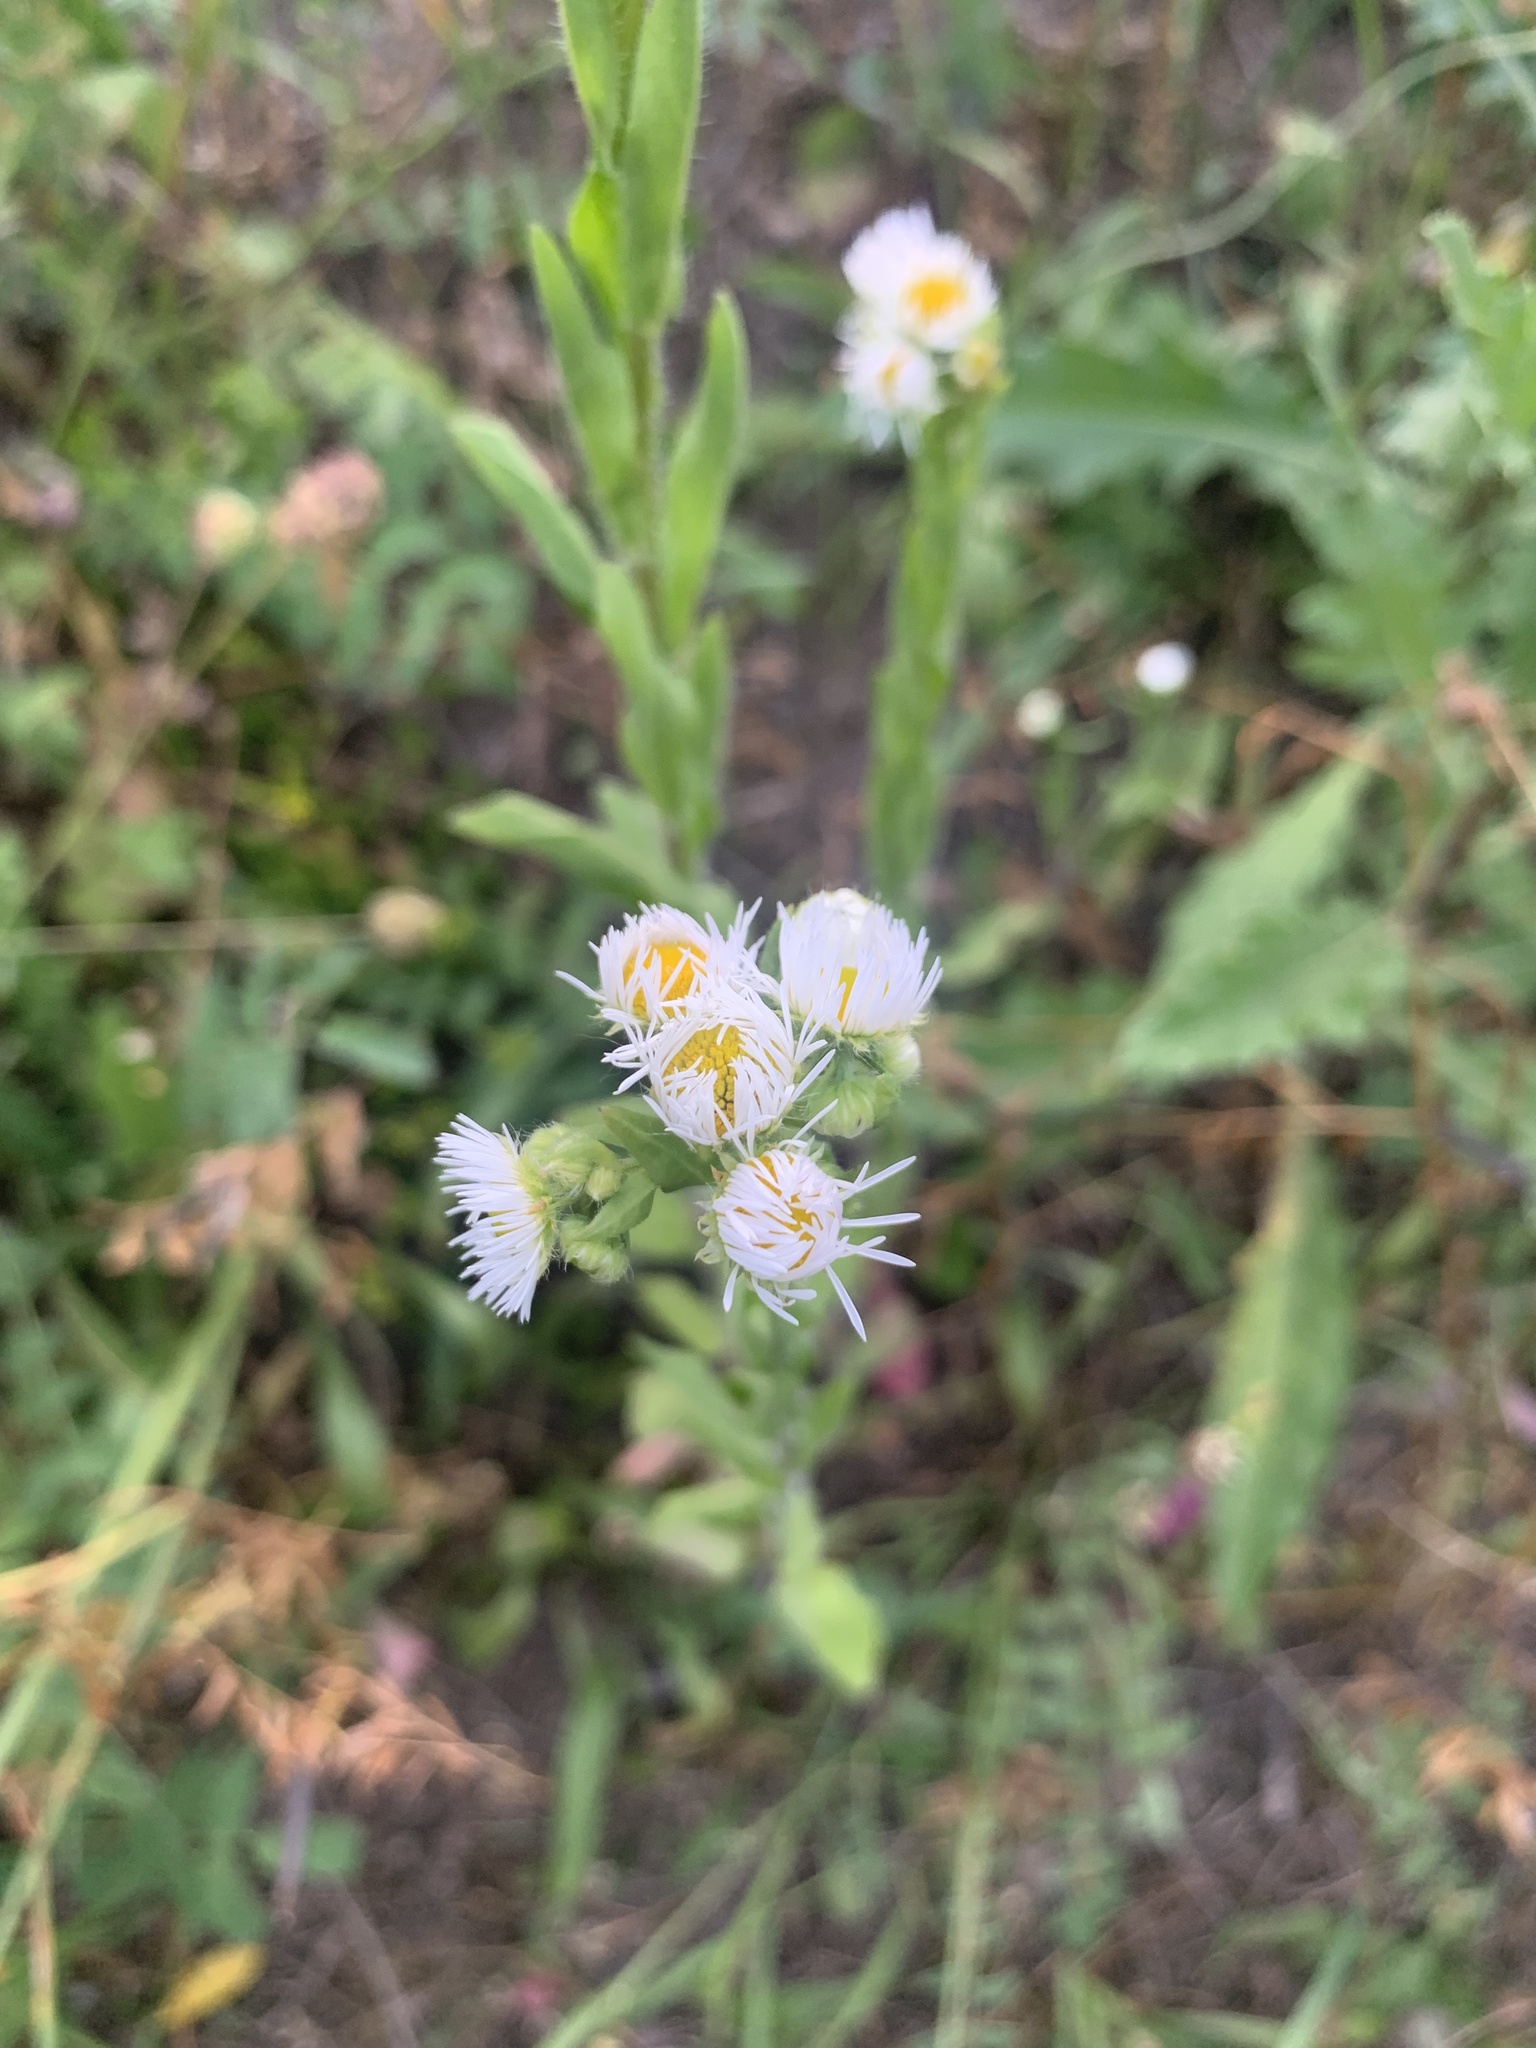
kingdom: Plantae
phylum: Tracheophyta
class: Magnoliopsida
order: Asterales
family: Asteraceae
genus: Erigeron
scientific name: Erigeron annuus
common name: Tall fleabane
